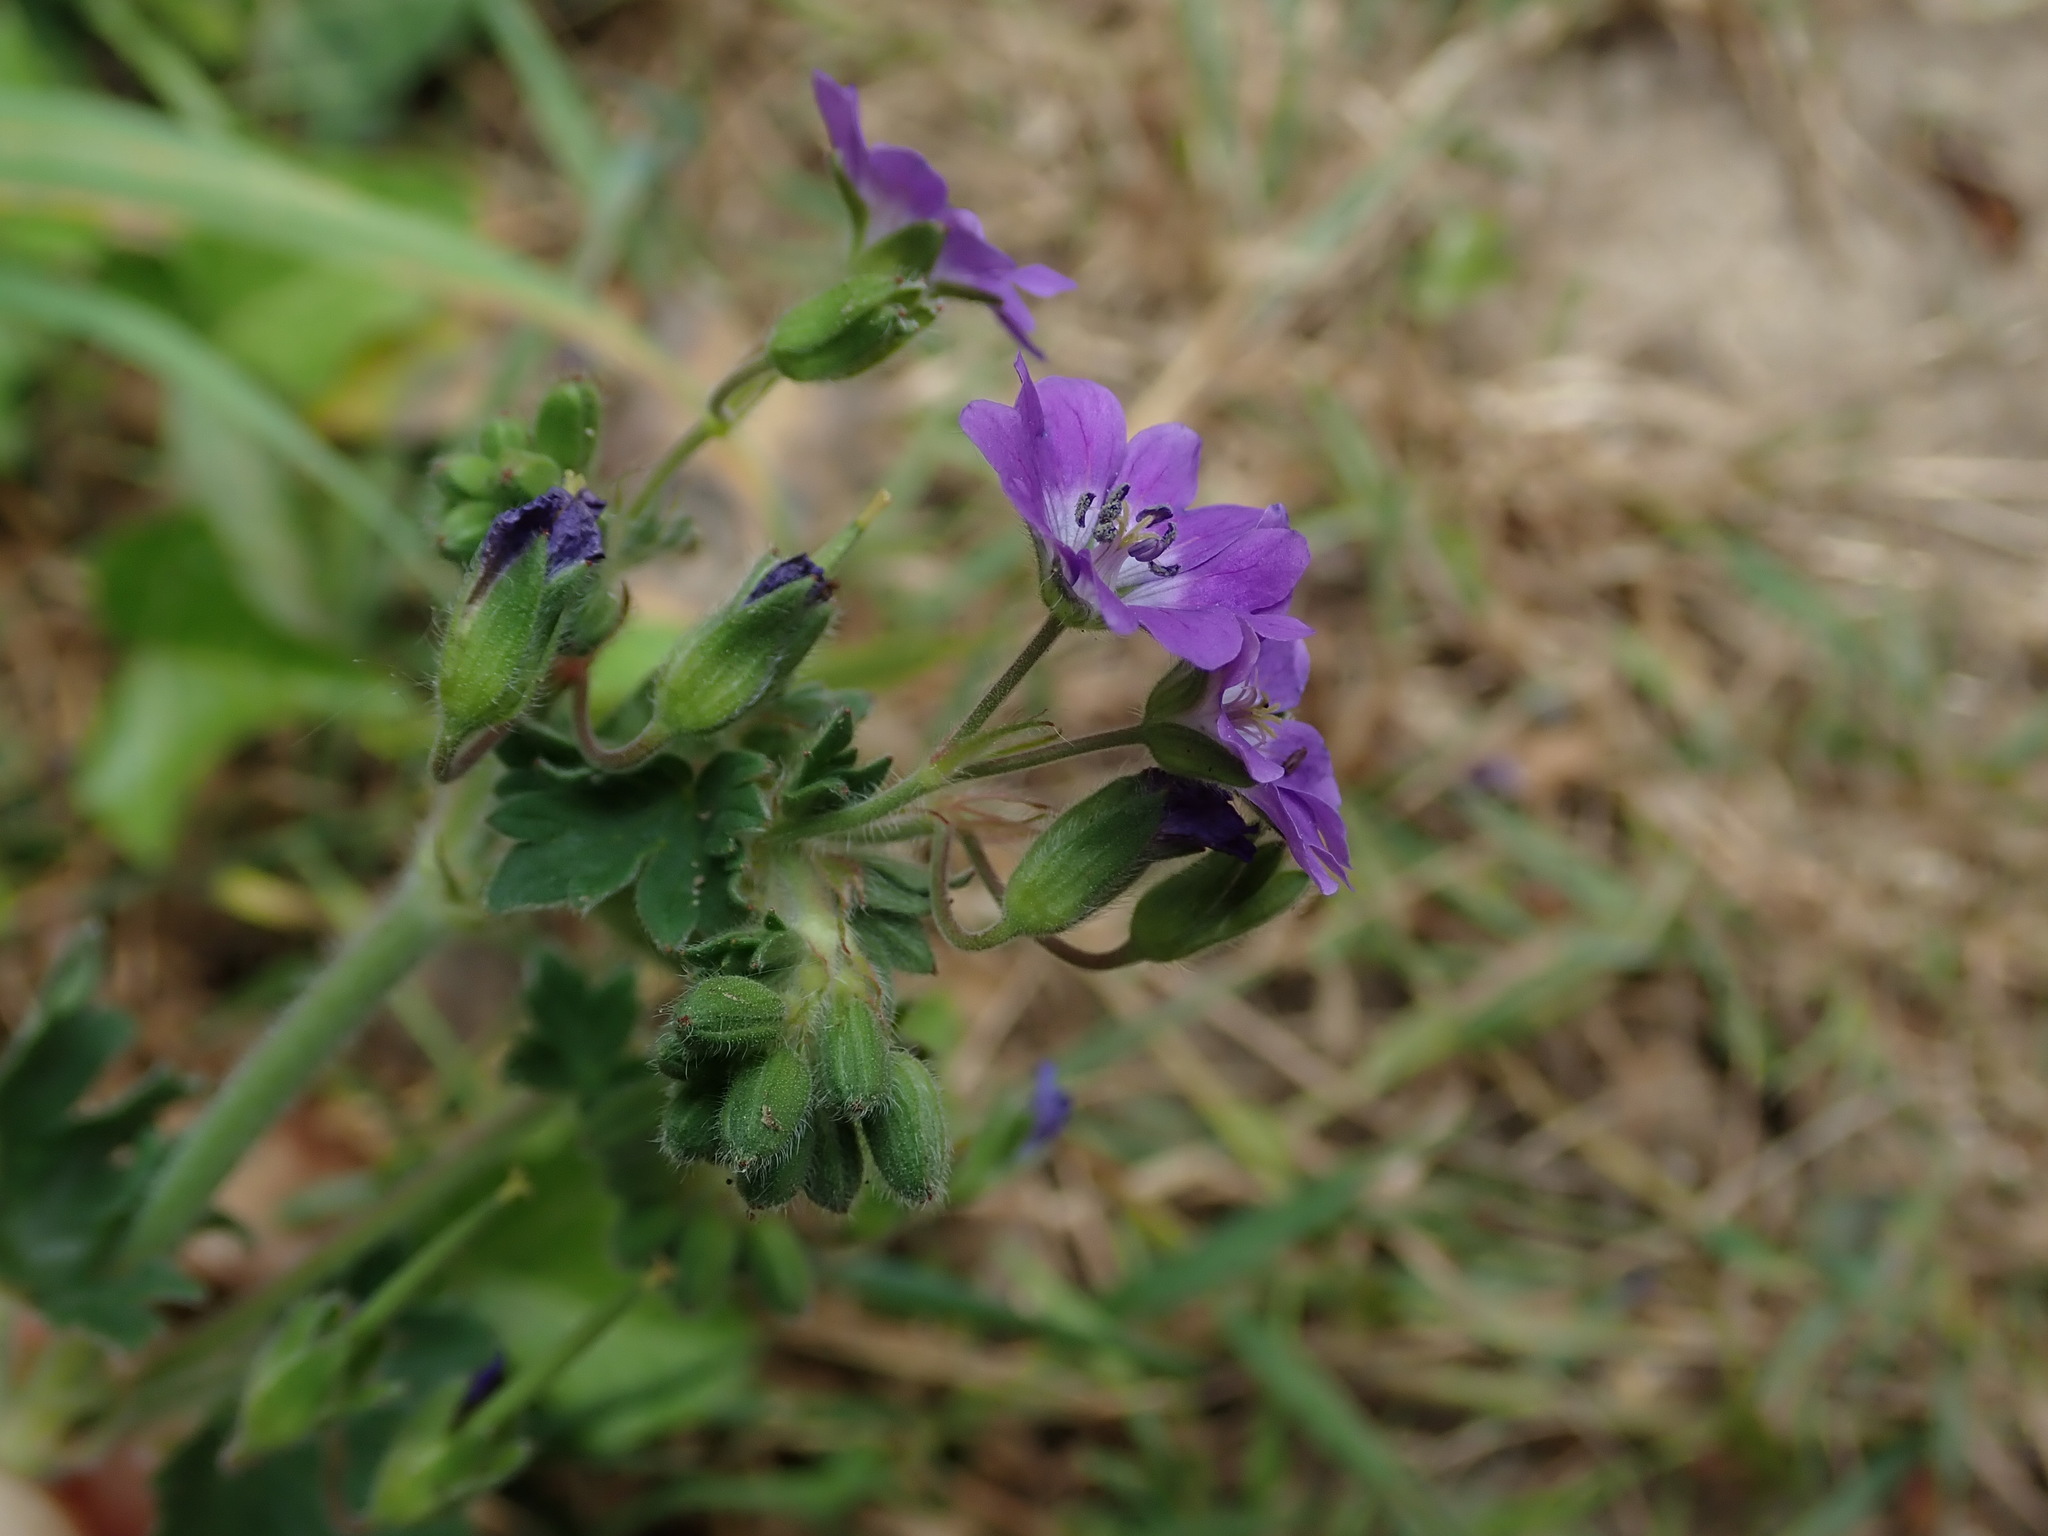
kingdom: Plantae
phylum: Tracheophyta
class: Magnoliopsida
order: Geraniales
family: Geraniaceae
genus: Geranium
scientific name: Geranium pyrenaicum
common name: Hedgerow crane's-bill
